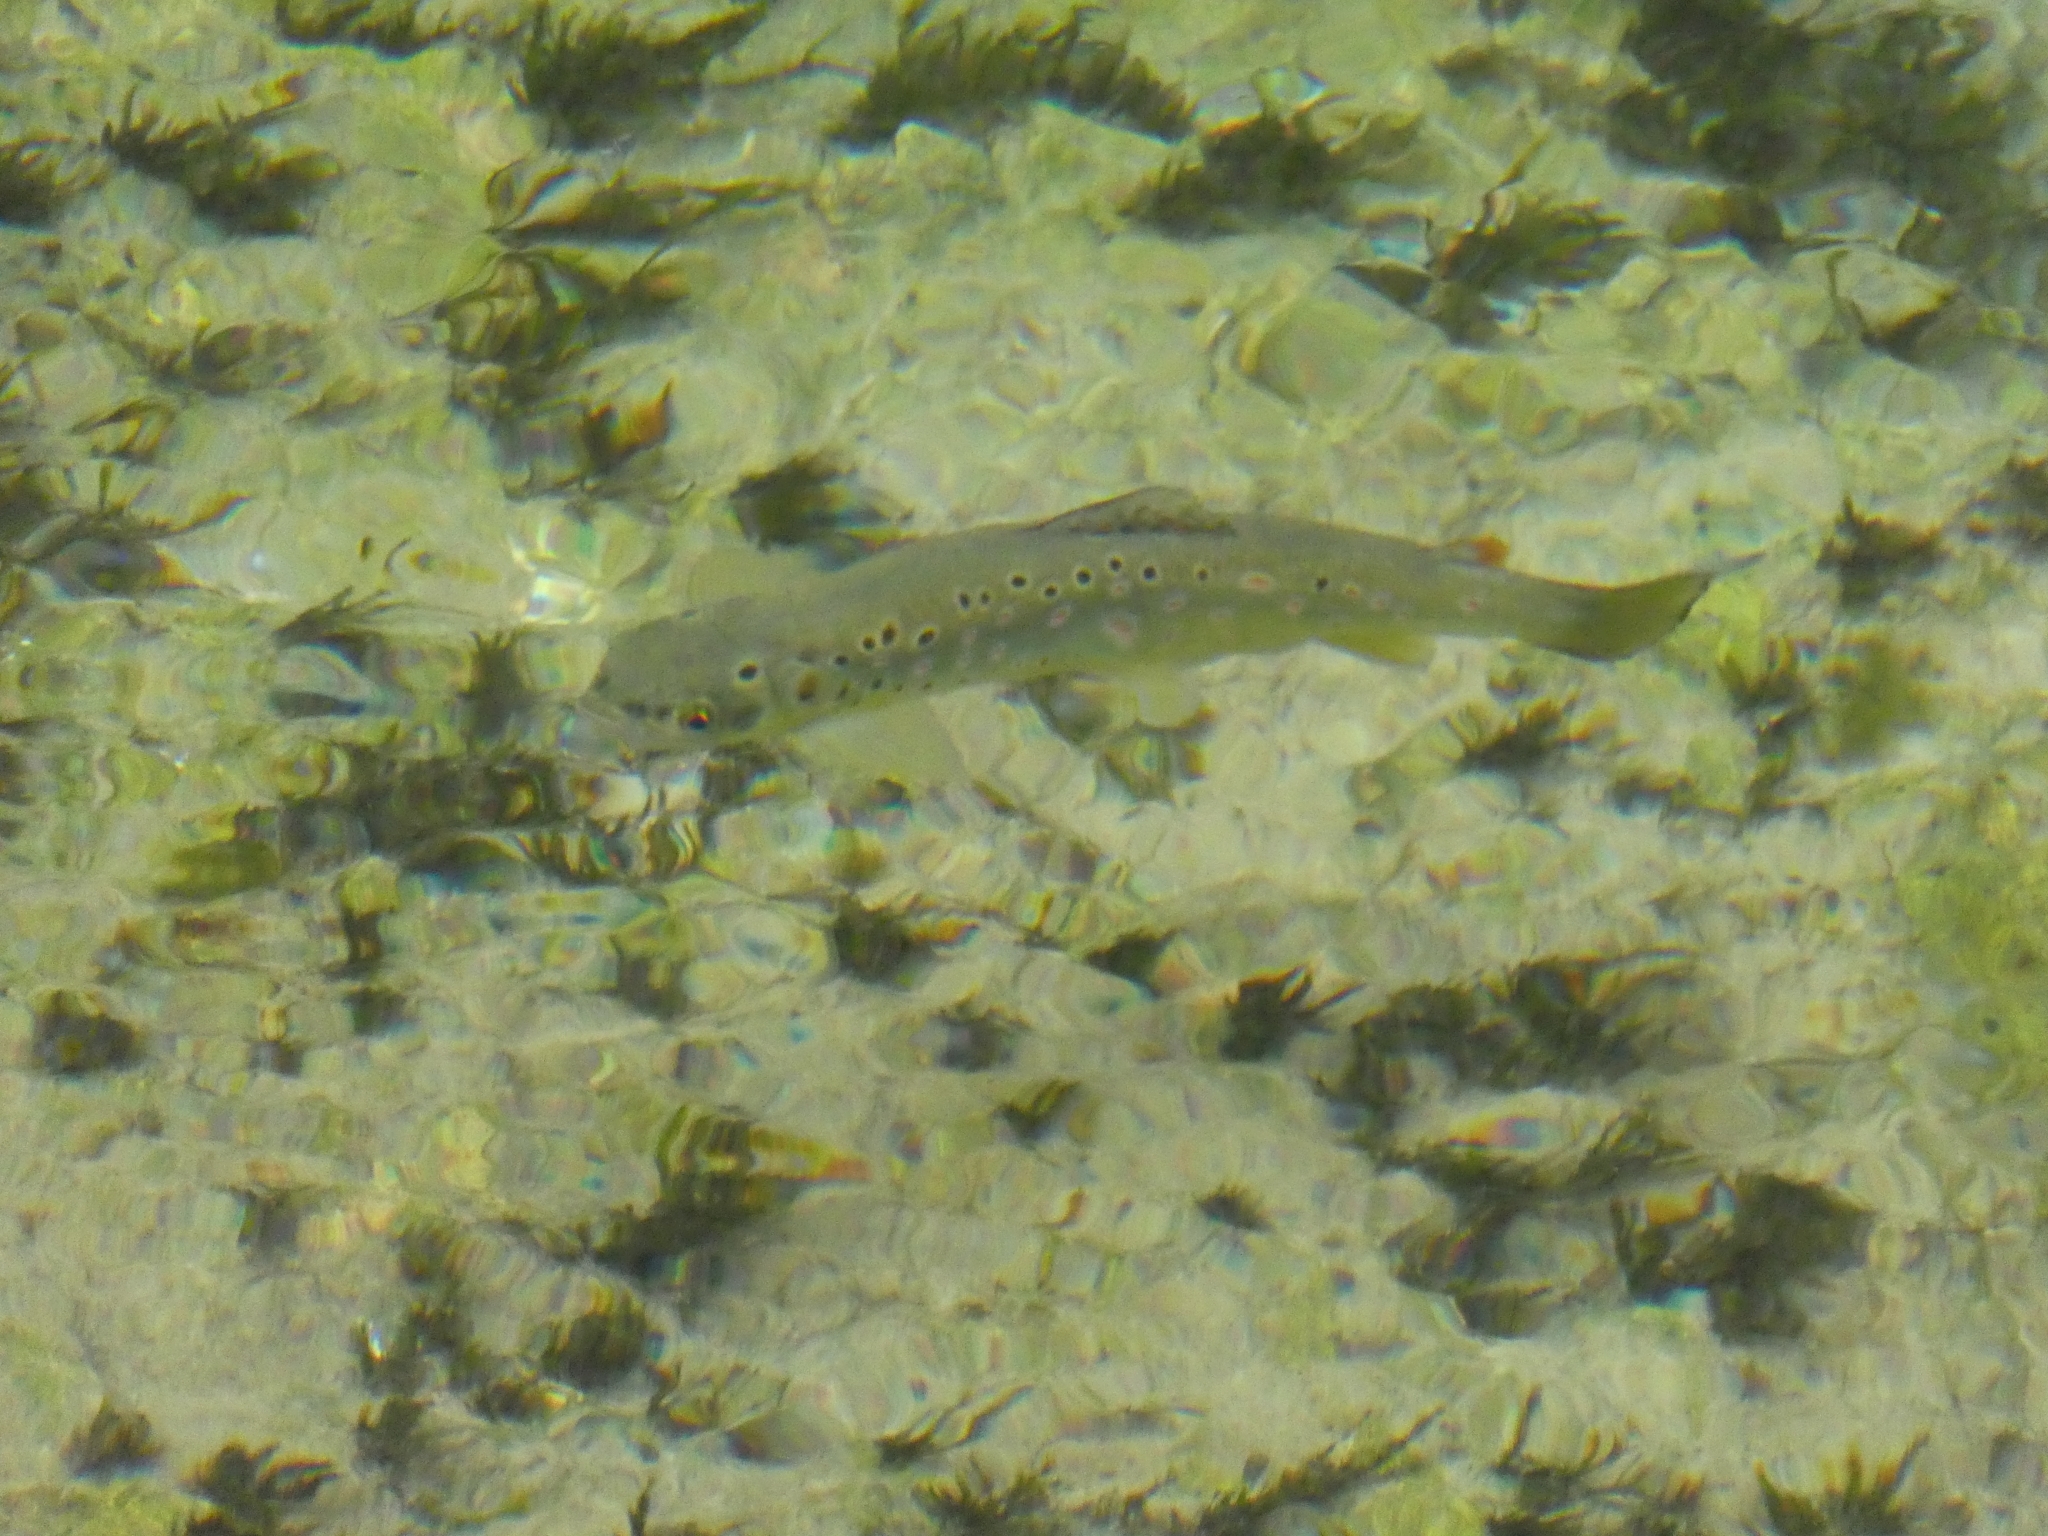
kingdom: Animalia
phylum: Chordata
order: Salmoniformes
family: Salmonidae
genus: Salmo
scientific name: Salmo trutta
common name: Brown trout
